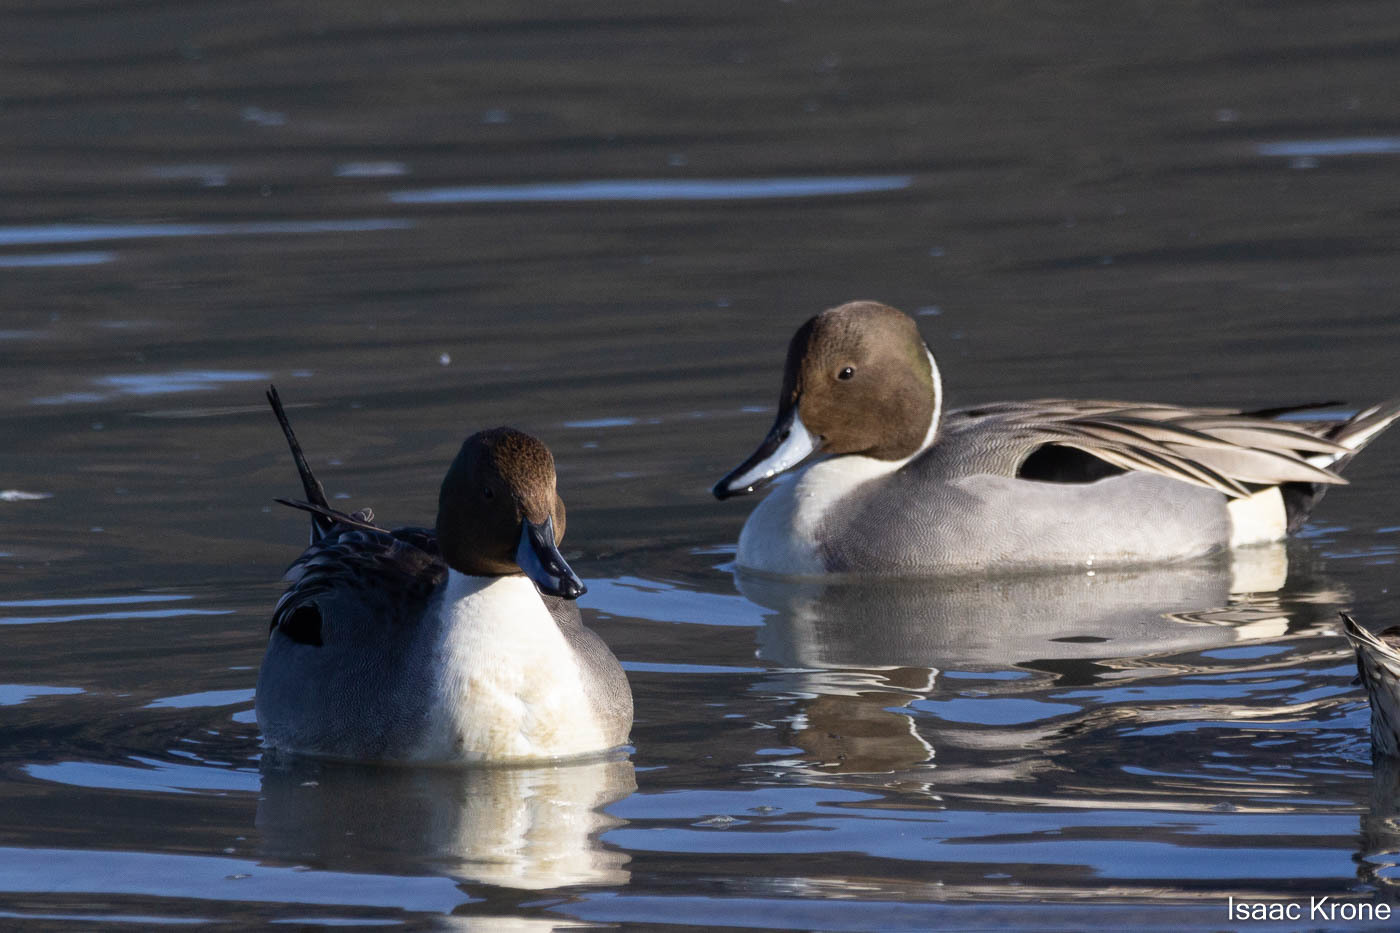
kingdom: Animalia
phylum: Chordata
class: Aves
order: Anseriformes
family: Anatidae
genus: Anas
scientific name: Anas acuta
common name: Northern pintail
